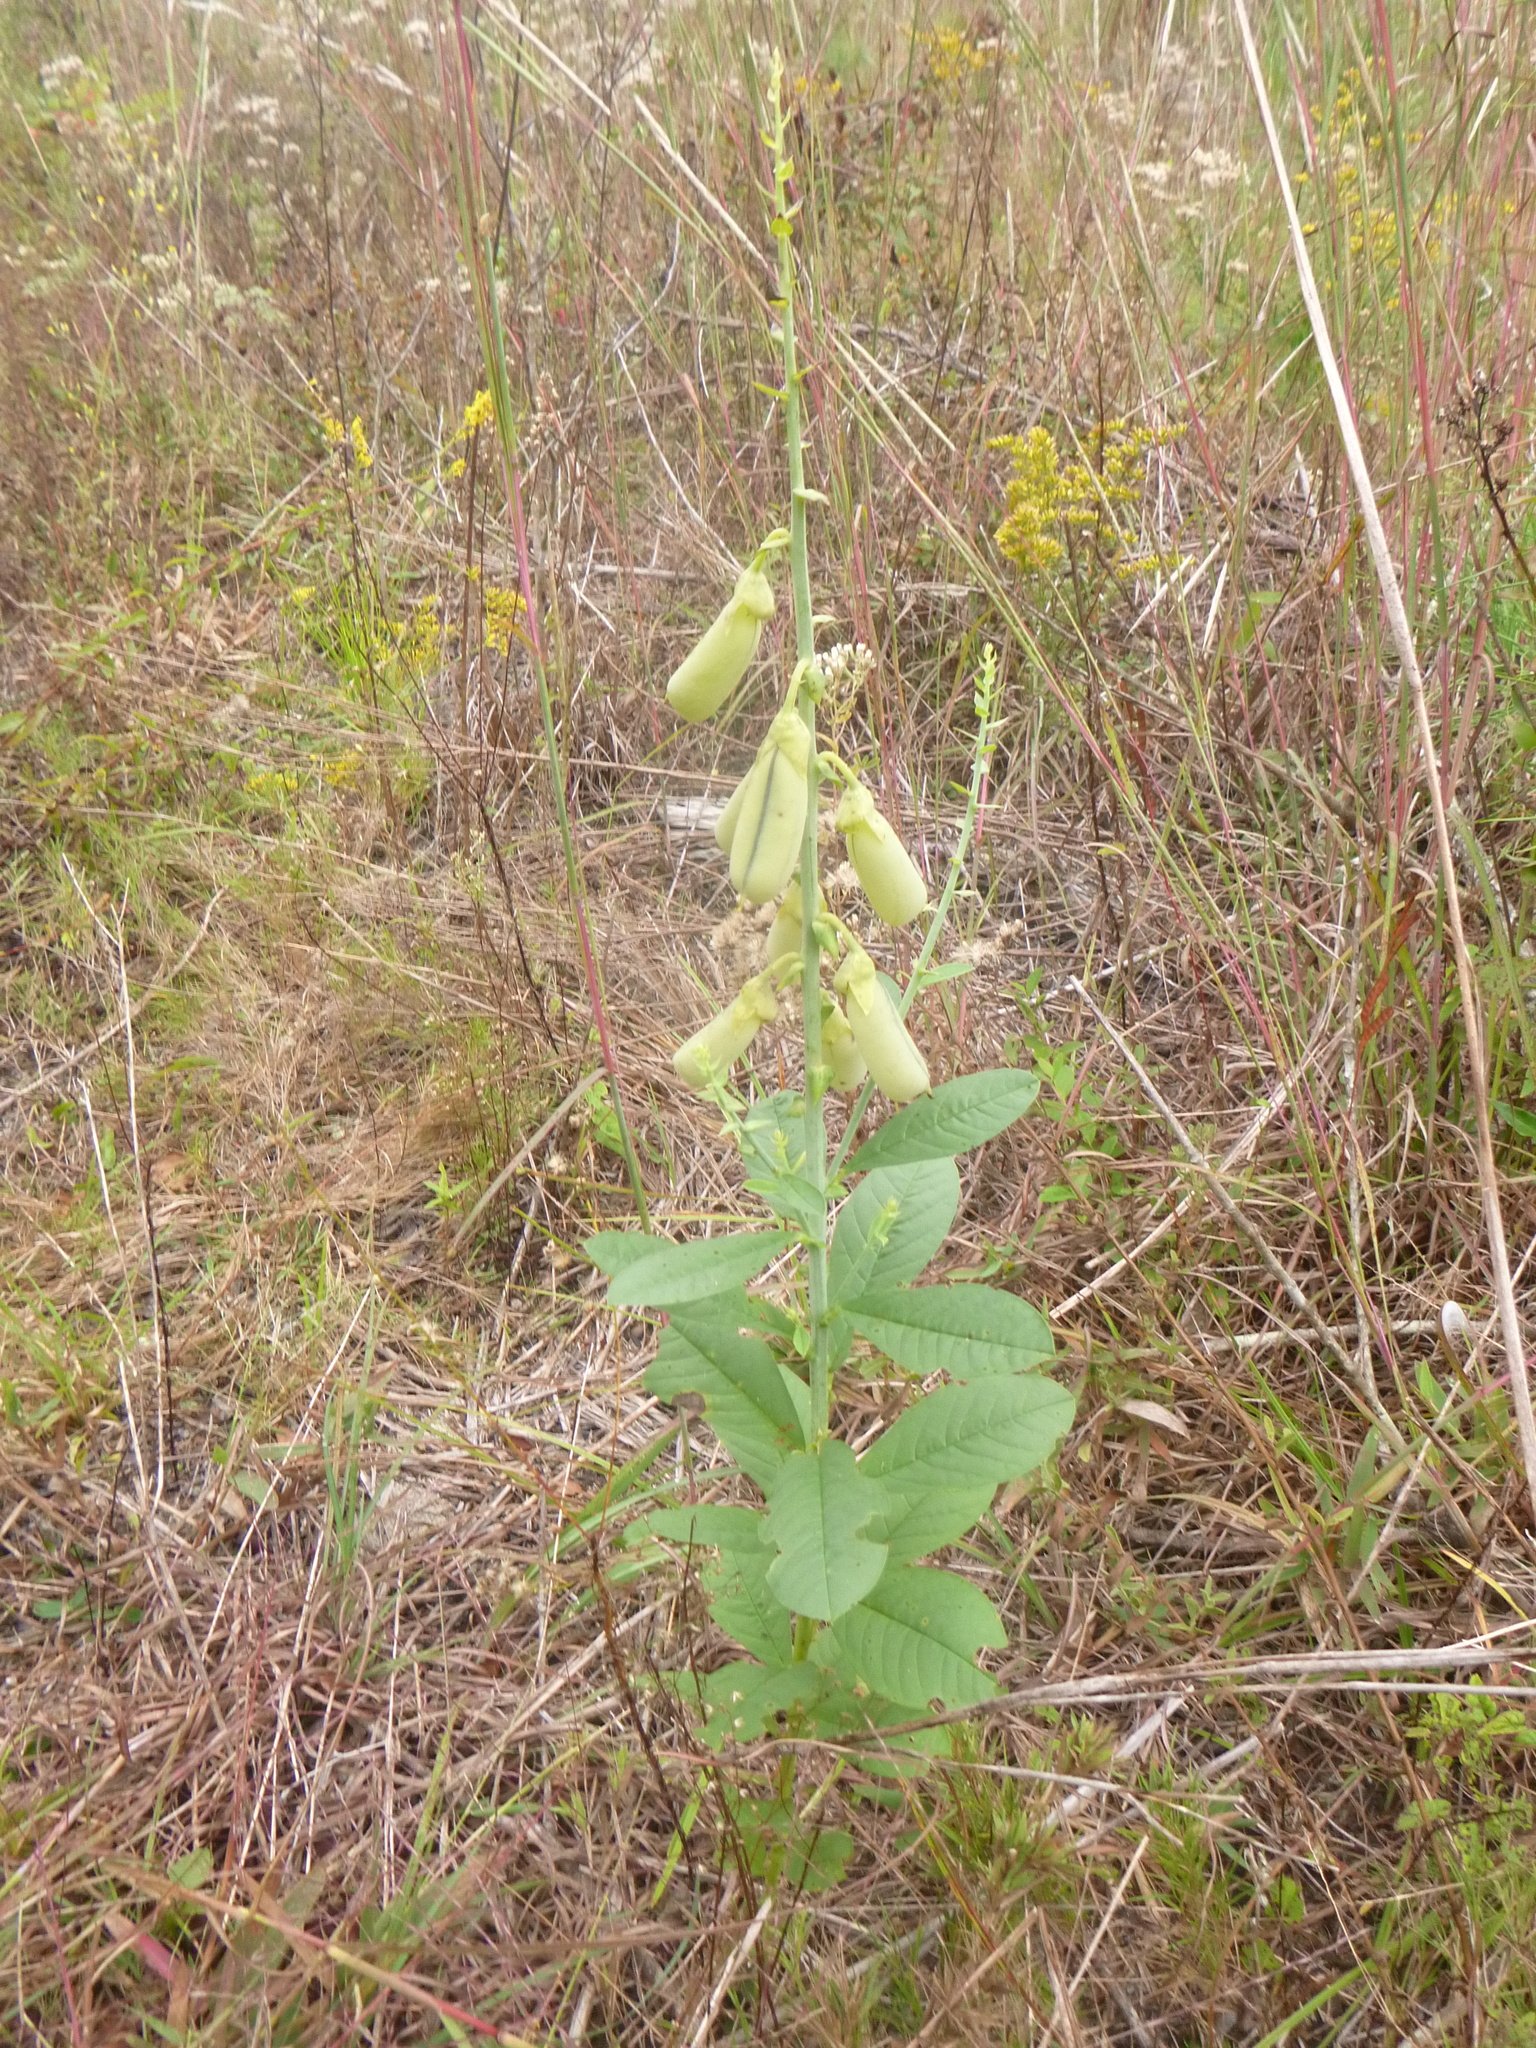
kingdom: Plantae
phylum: Tracheophyta
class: Magnoliopsida
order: Fabales
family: Fabaceae
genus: Crotalaria
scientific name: Crotalaria spectabilis
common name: Showy rattlebox
